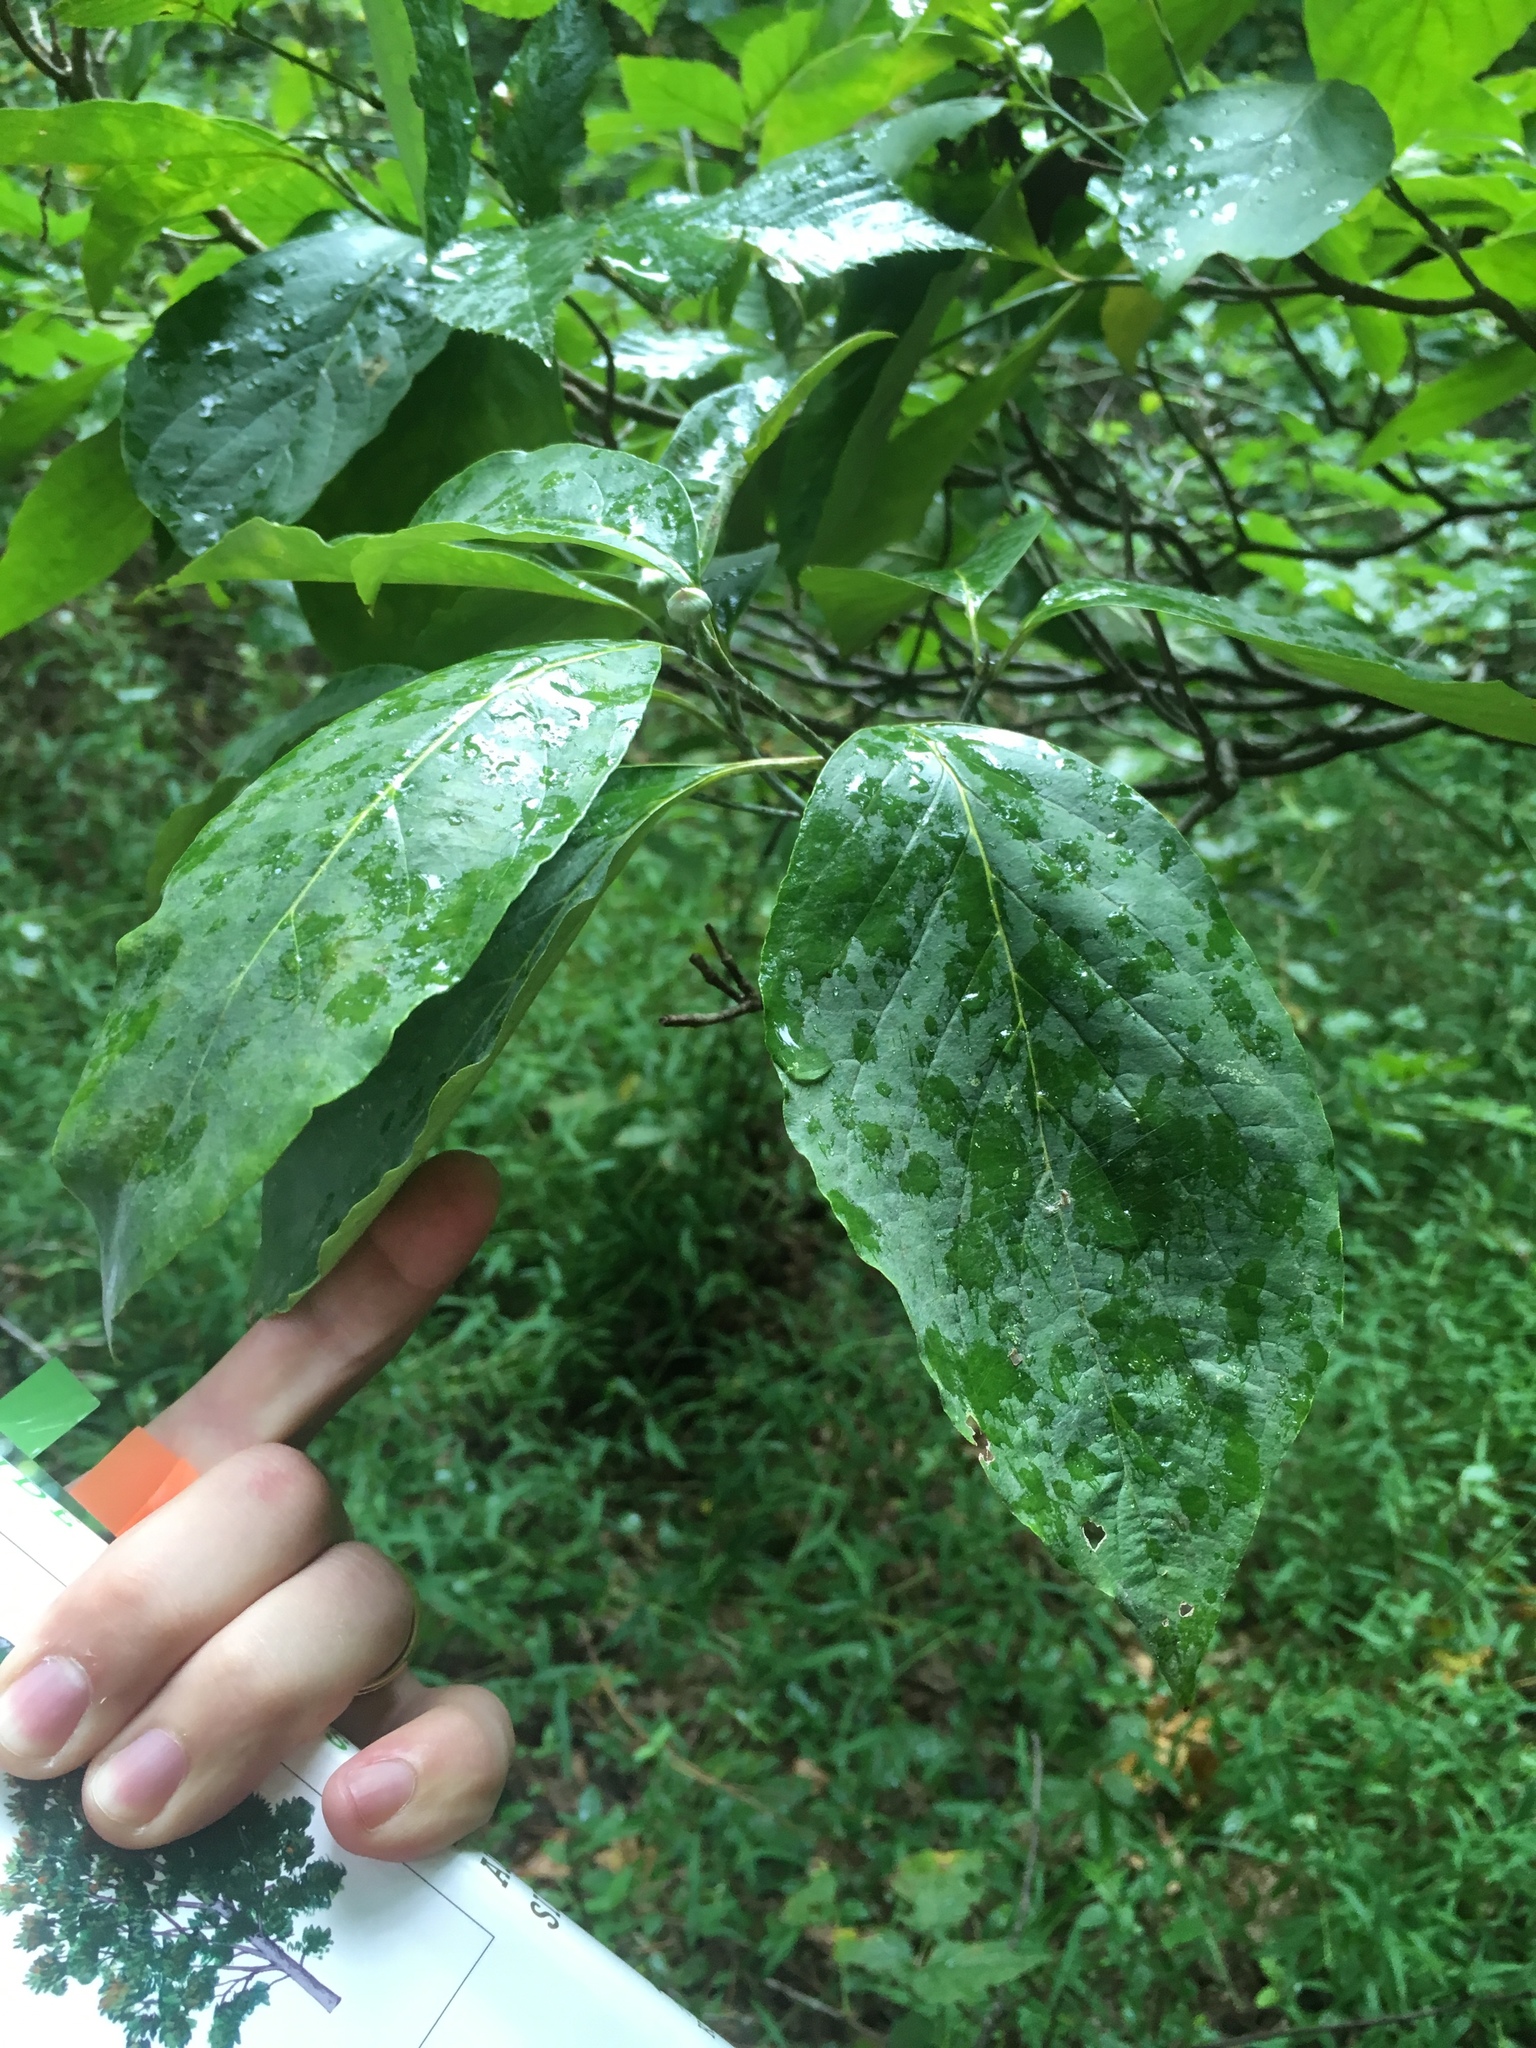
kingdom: Plantae
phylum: Tracheophyta
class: Magnoliopsida
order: Cornales
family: Cornaceae
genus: Cornus
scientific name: Cornus florida
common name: Flowering dogwood
